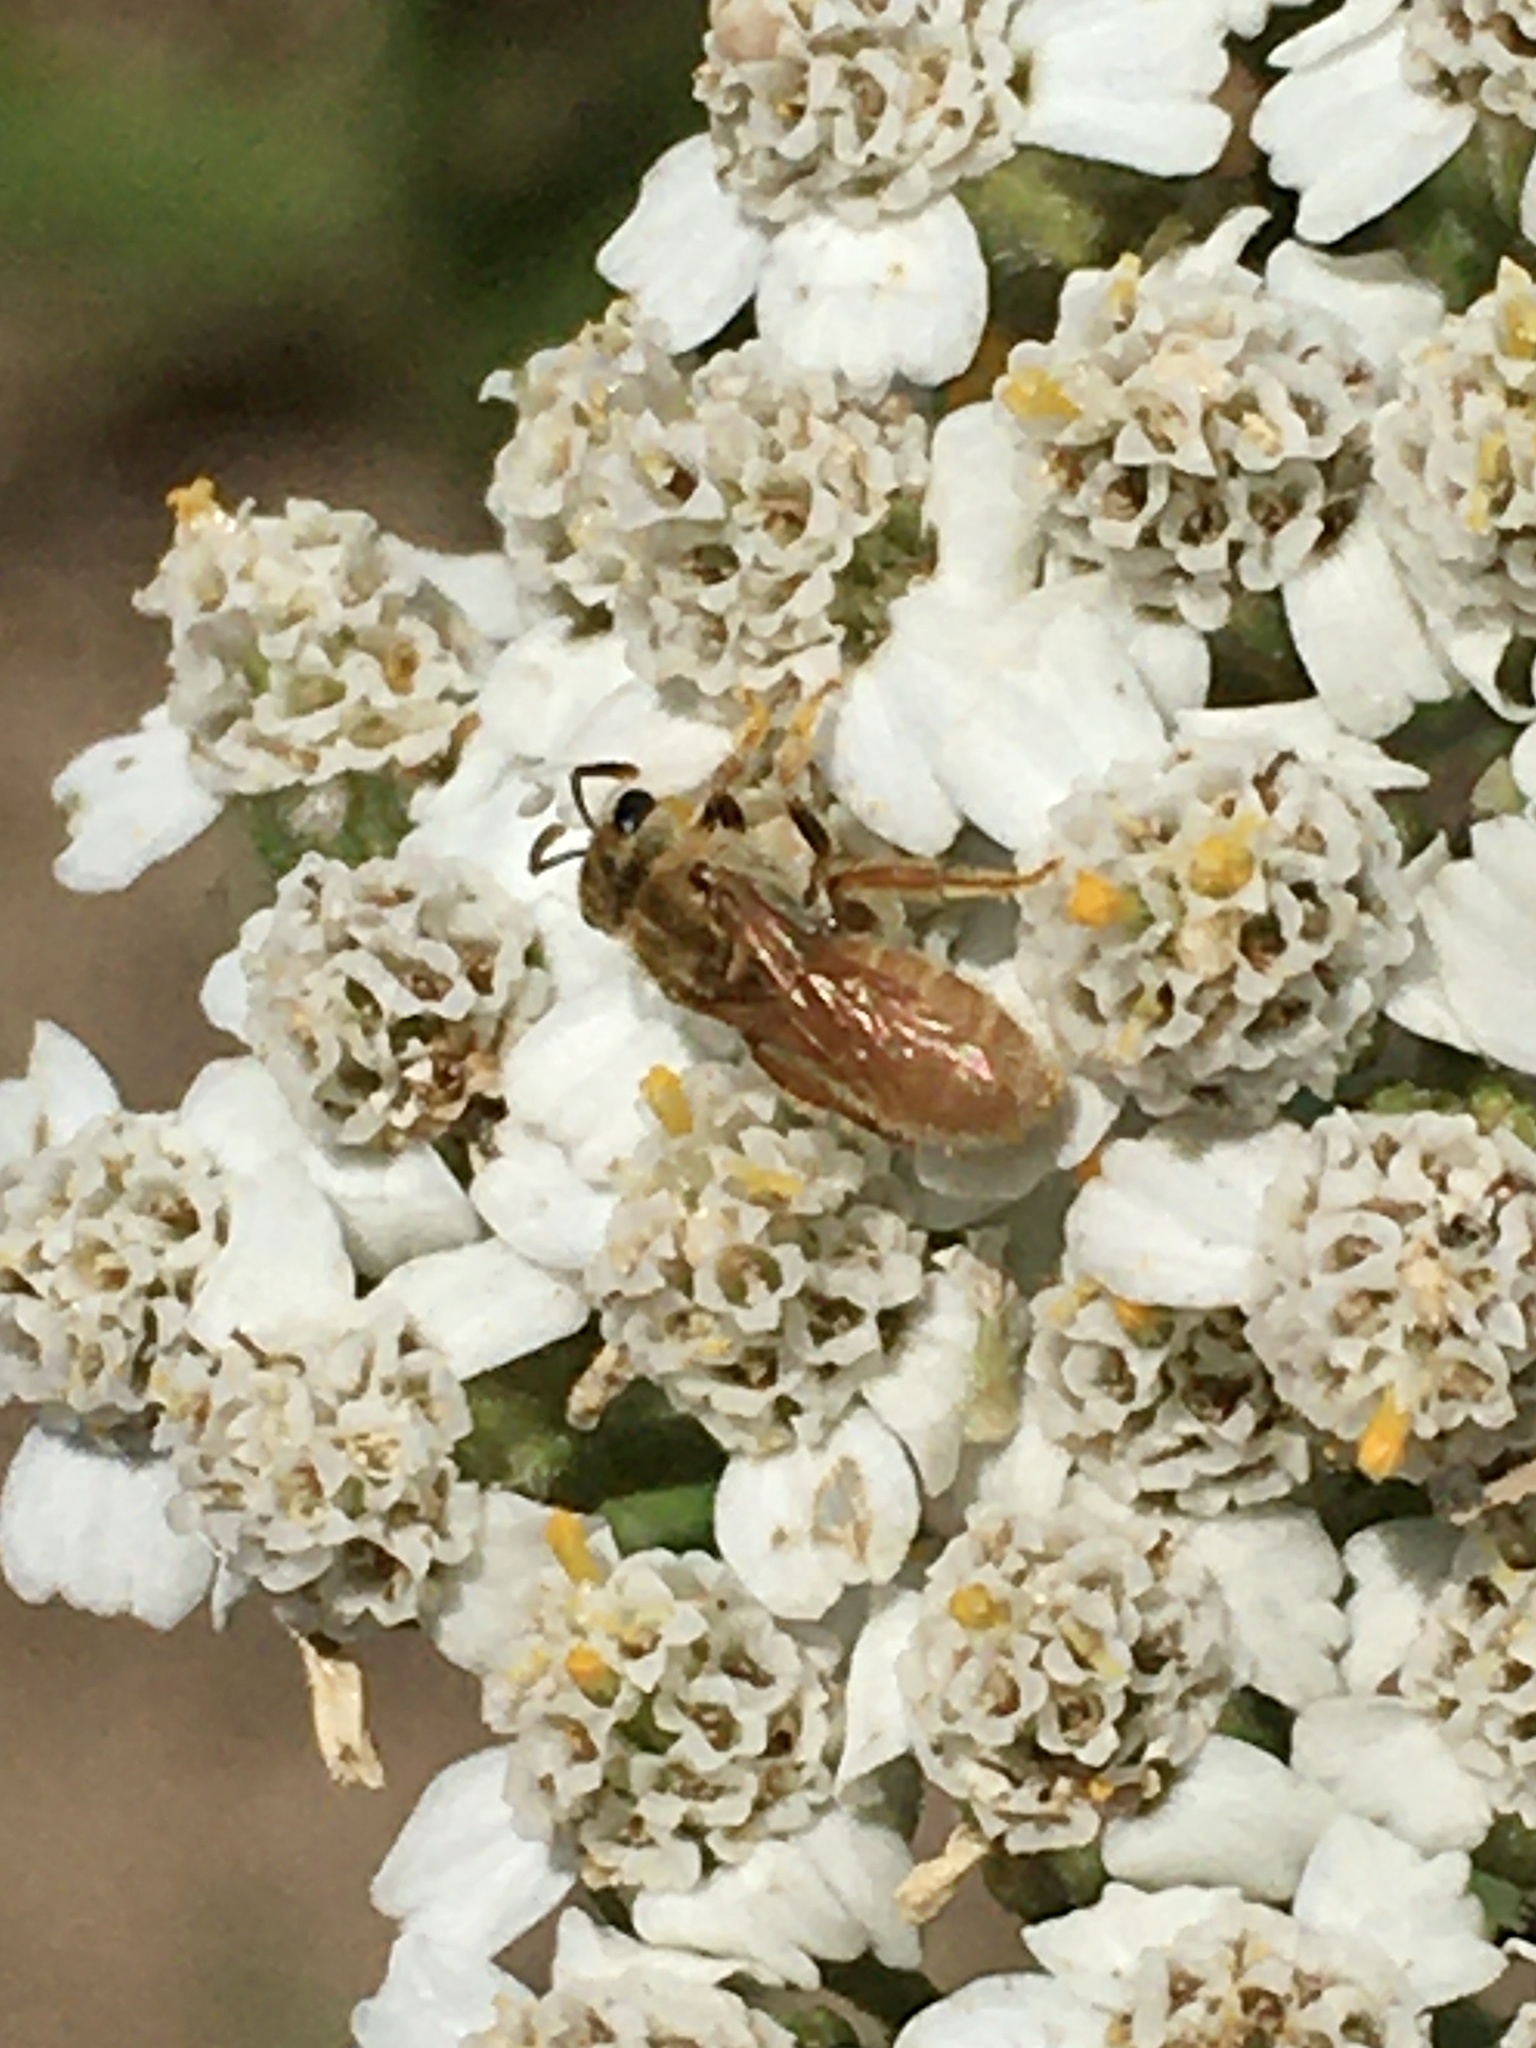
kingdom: Animalia
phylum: Arthropoda
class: Insecta
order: Hymenoptera
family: Halictidae
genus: Lasioglossum
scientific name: Lasioglossum vierecki
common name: Viereck's sweat bee
